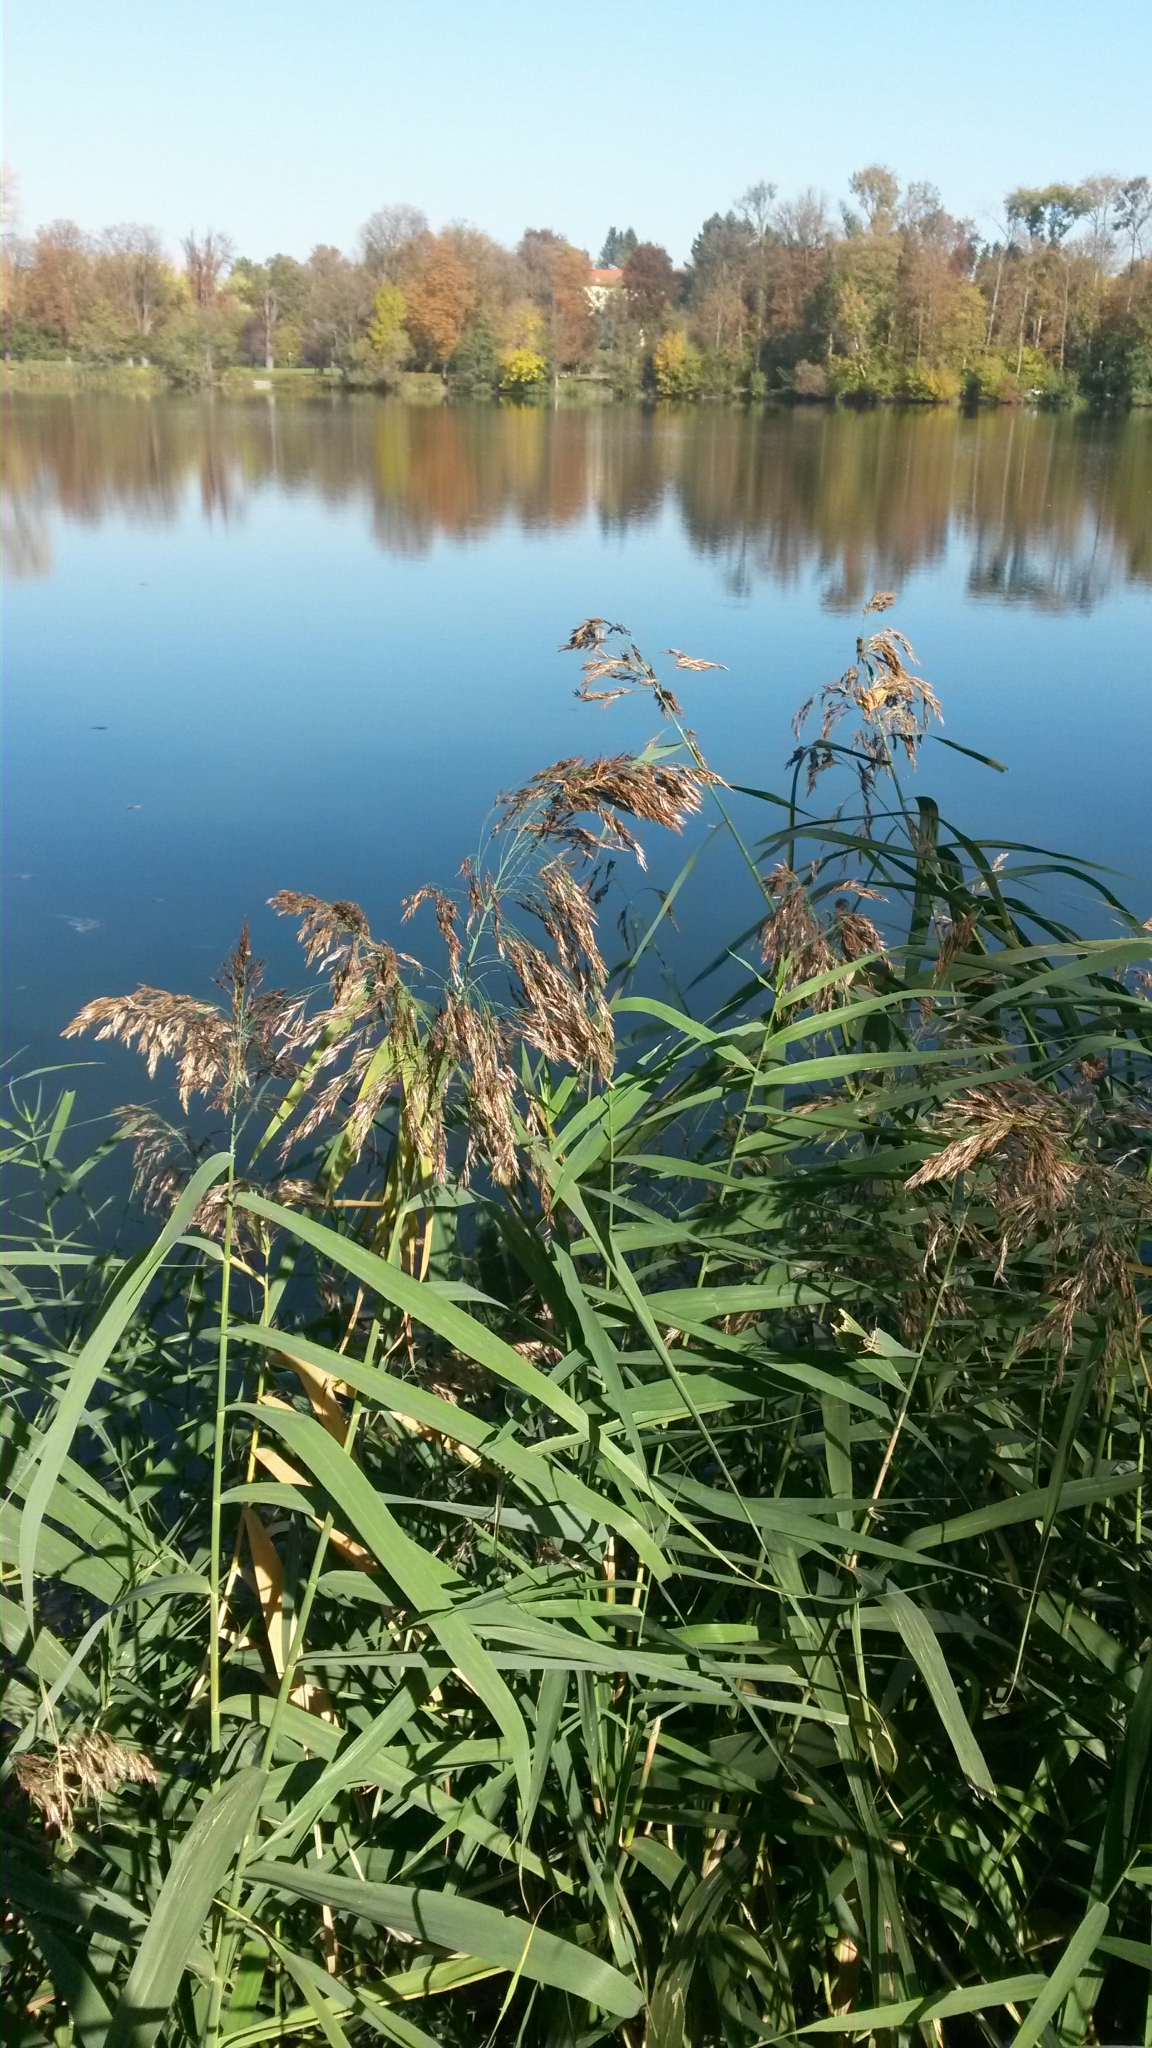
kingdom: Plantae
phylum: Tracheophyta
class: Liliopsida
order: Poales
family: Poaceae
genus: Phragmites
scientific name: Phragmites australis
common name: Common reed
